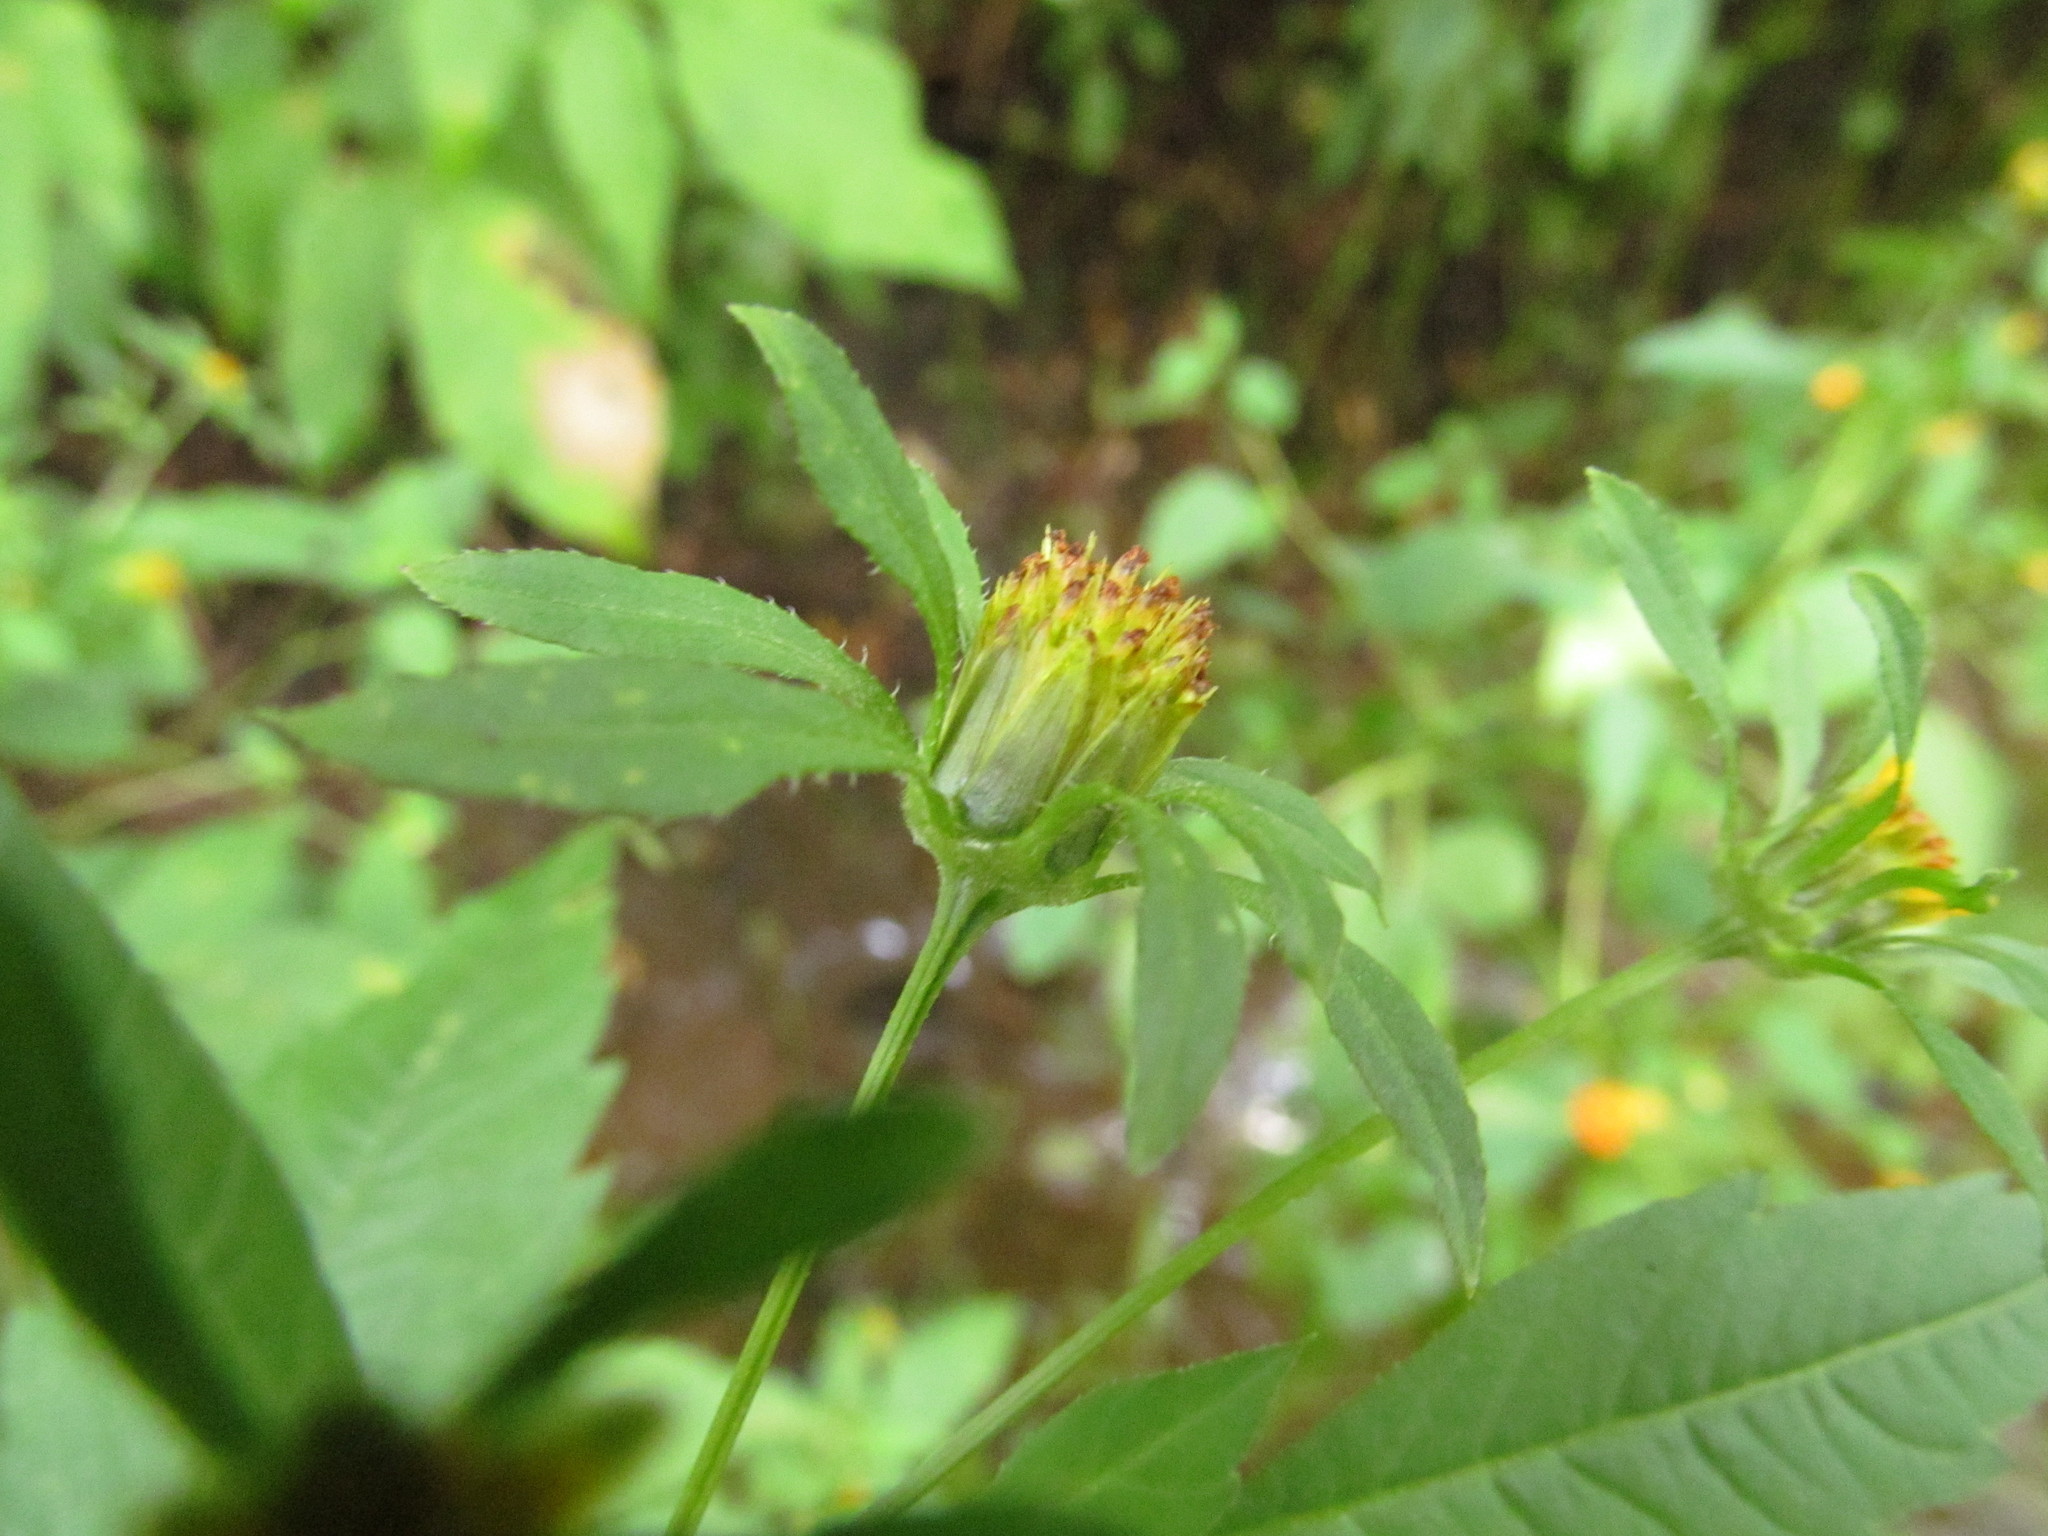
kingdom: Plantae
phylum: Tracheophyta
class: Magnoliopsida
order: Asterales
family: Asteraceae
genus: Bidens
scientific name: Bidens frondosa
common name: Beggarticks
